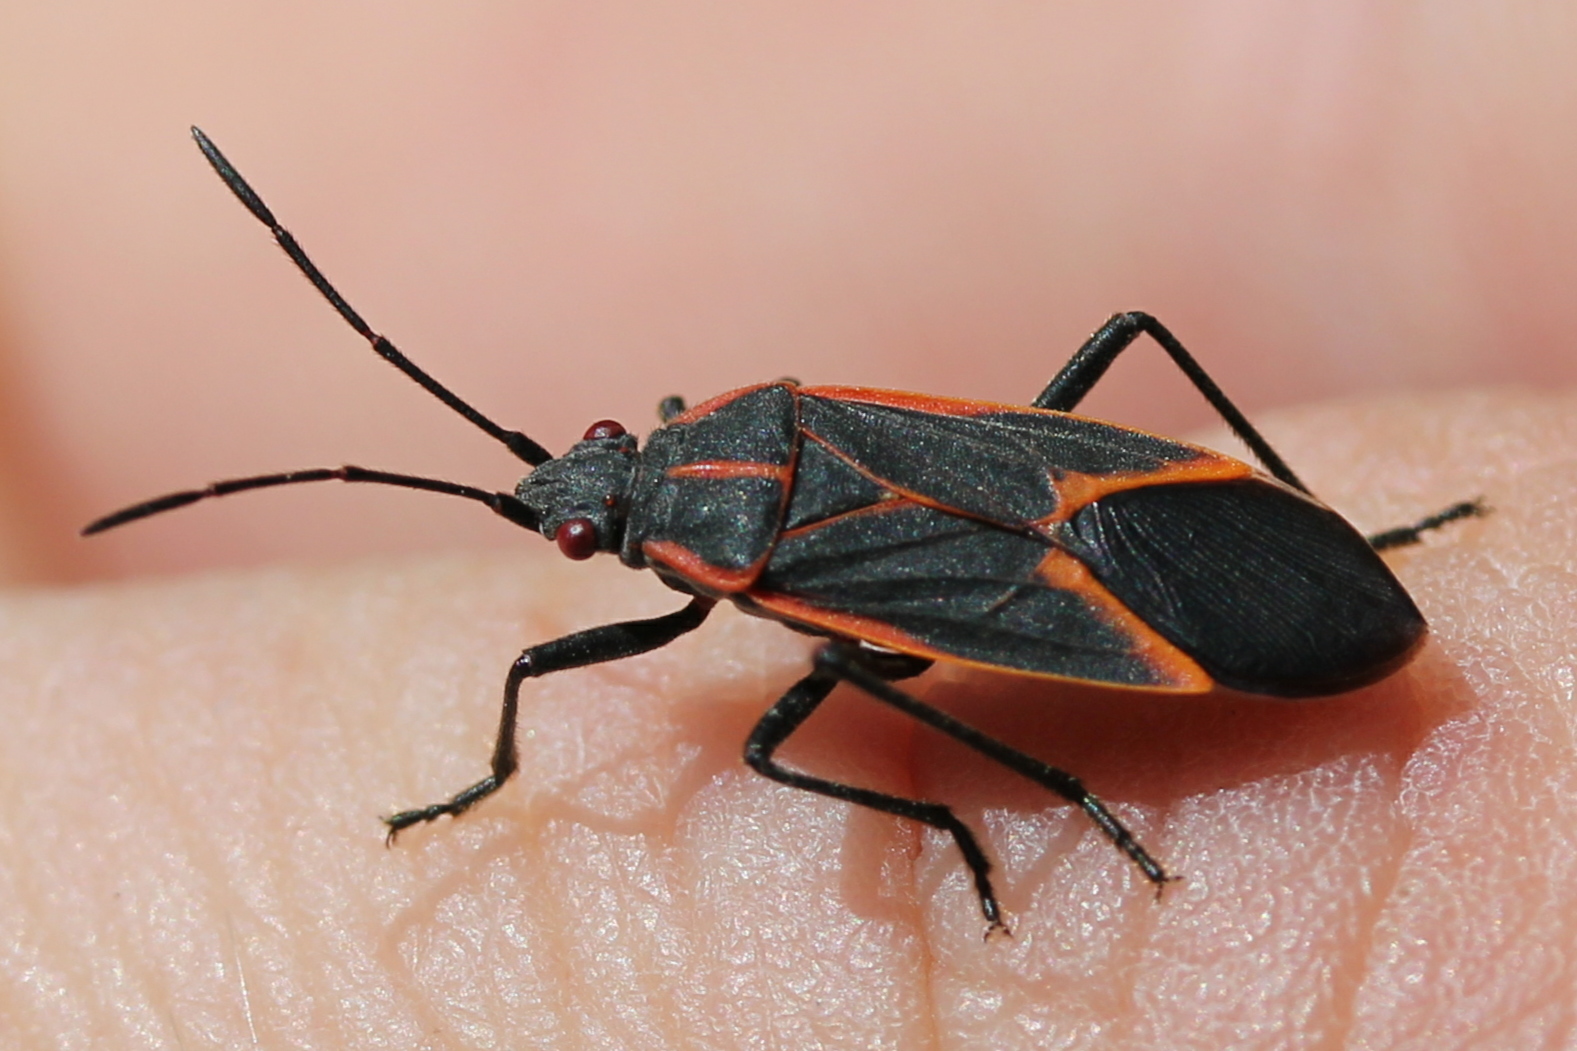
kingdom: Animalia
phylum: Arthropoda
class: Insecta
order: Hemiptera
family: Rhopalidae
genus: Boisea
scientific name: Boisea trivittata
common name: Boxelder bug
